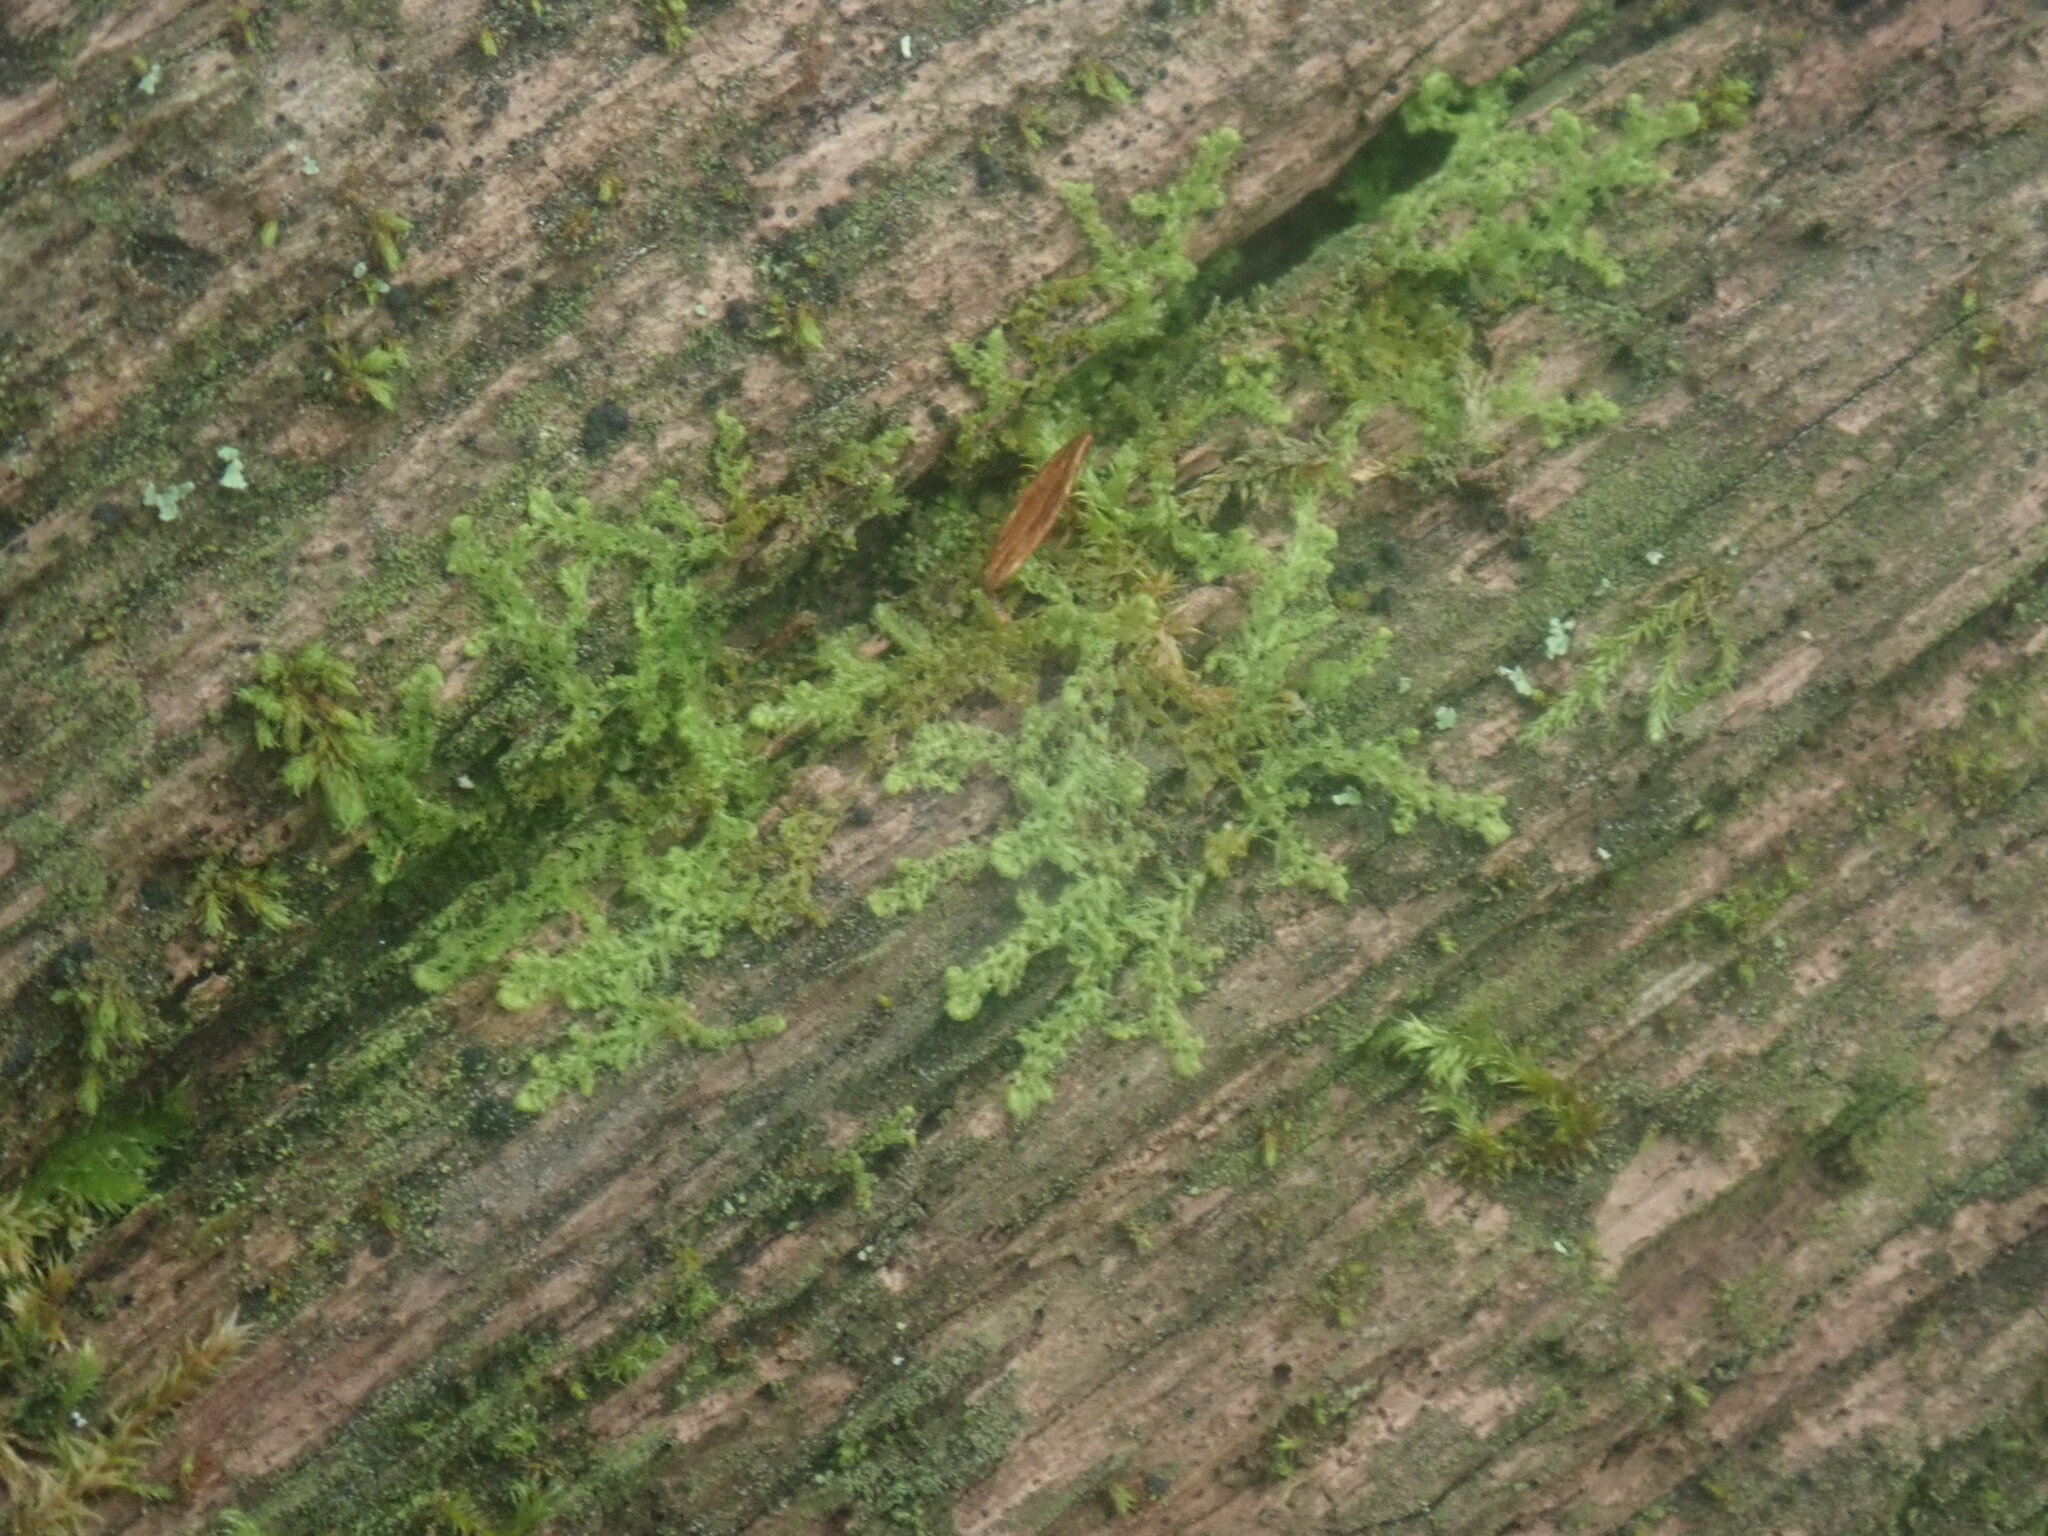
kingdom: Plantae
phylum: Marchantiophyta
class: Jungermanniopsida
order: Ptilidiales
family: Ptilidiaceae
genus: Ptilidium
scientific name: Ptilidium pulcherrimum
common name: Tree fringewort
